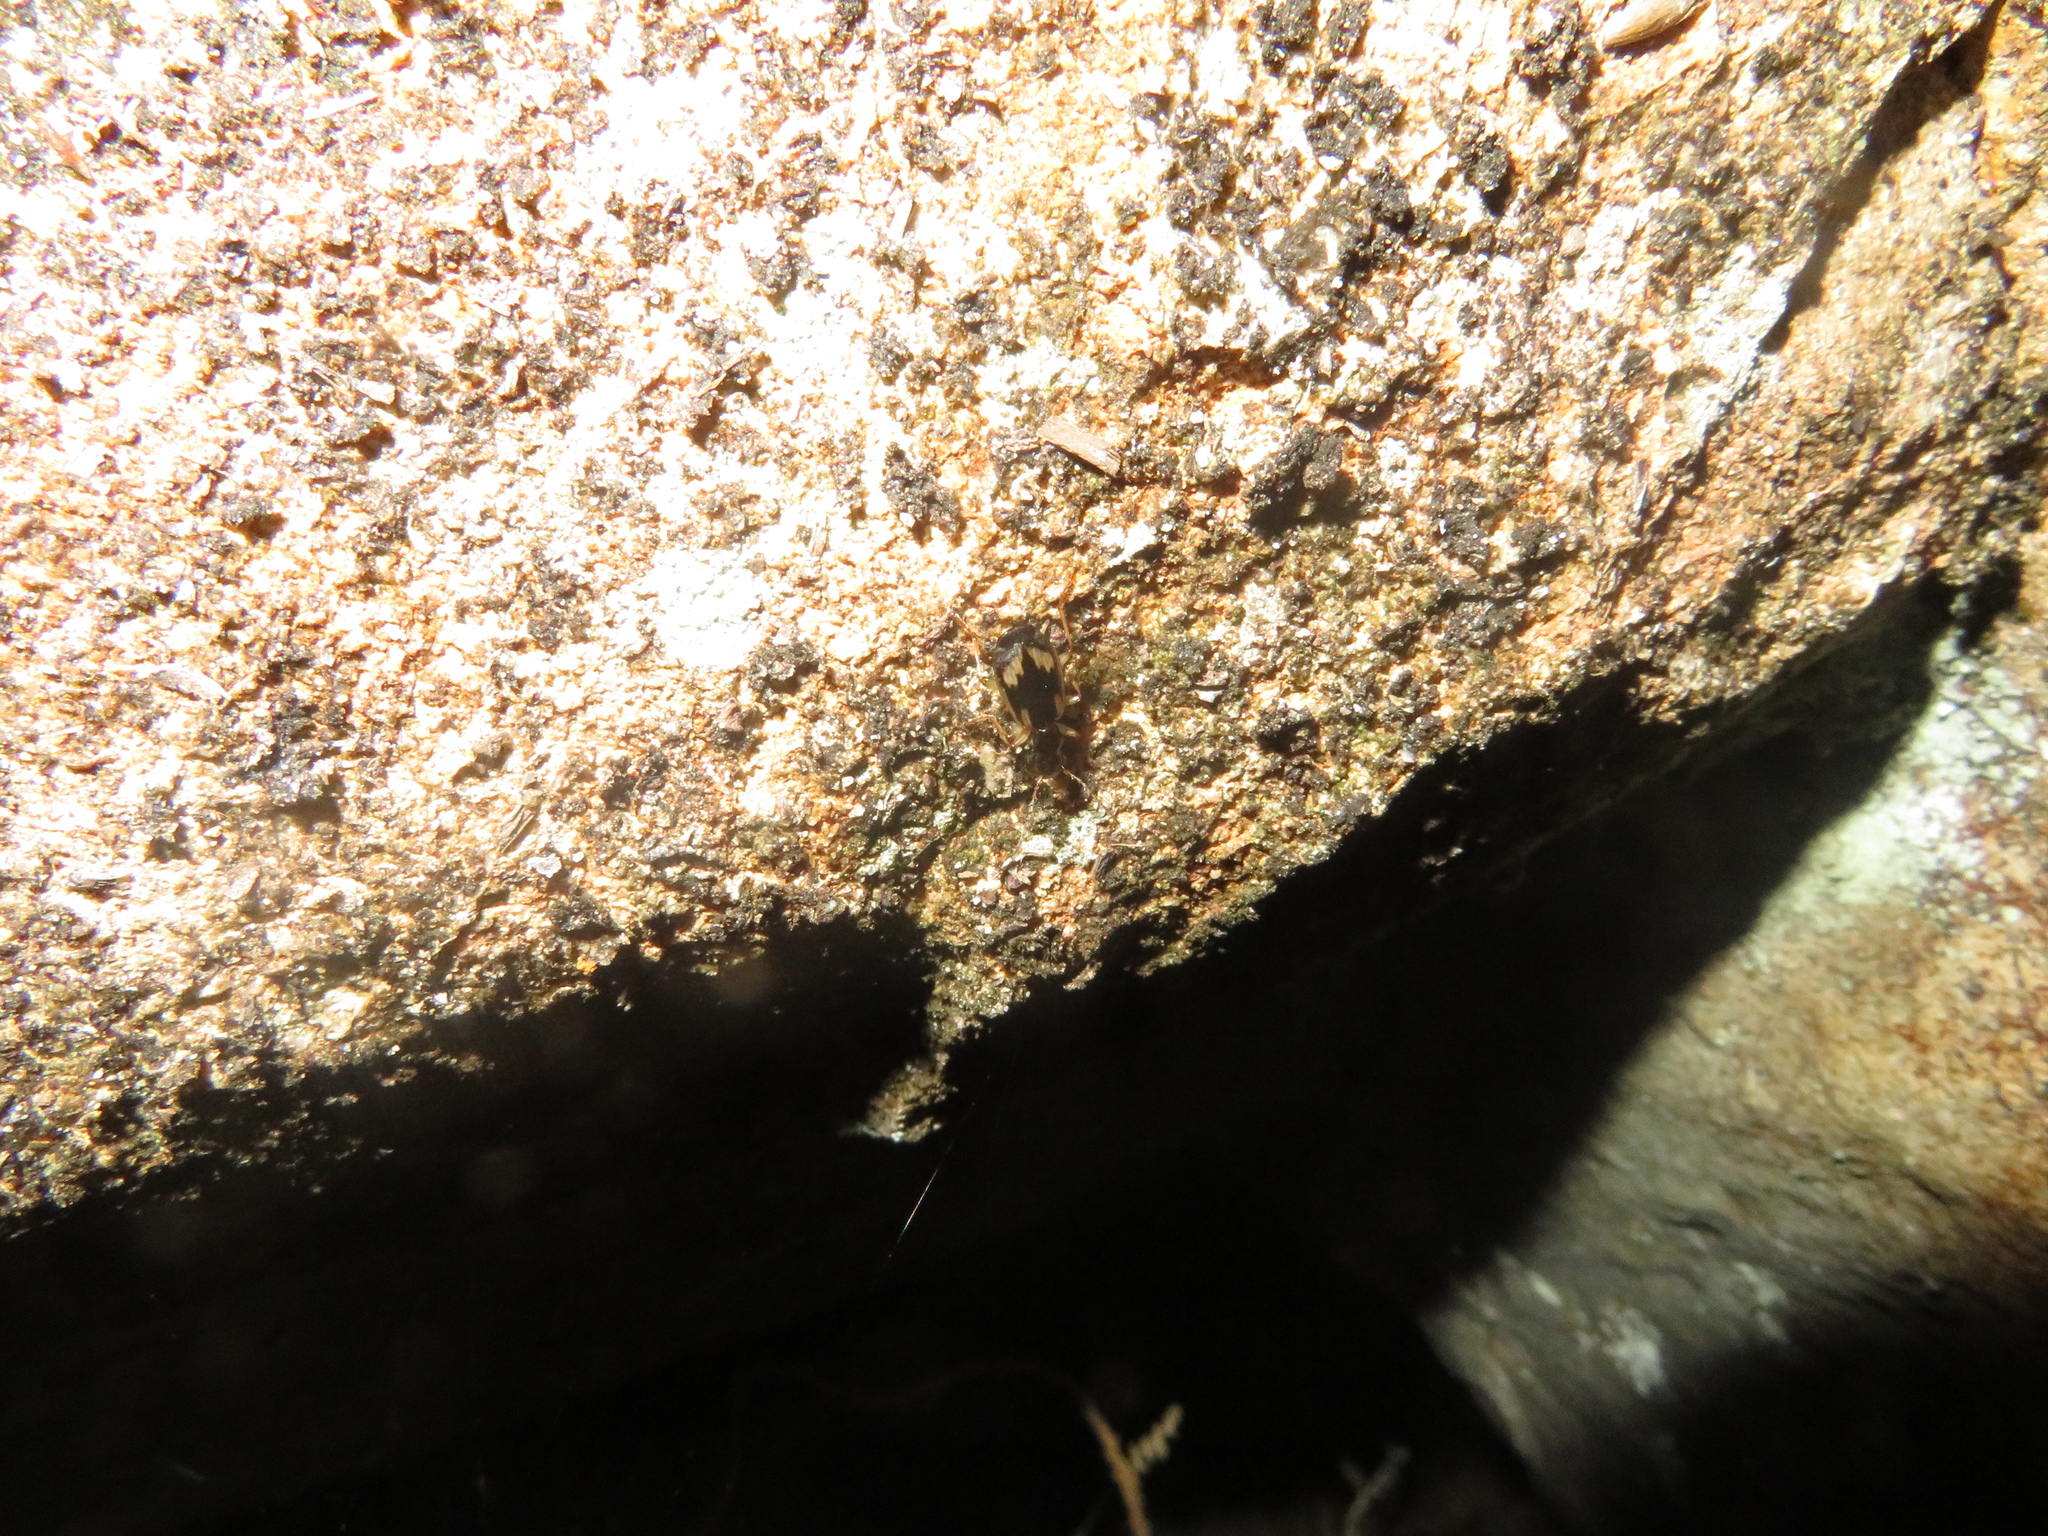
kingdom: Animalia
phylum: Arthropoda
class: Insecta
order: Coleoptera
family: Carabidae
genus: Demetrida
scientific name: Demetrida nasuta
